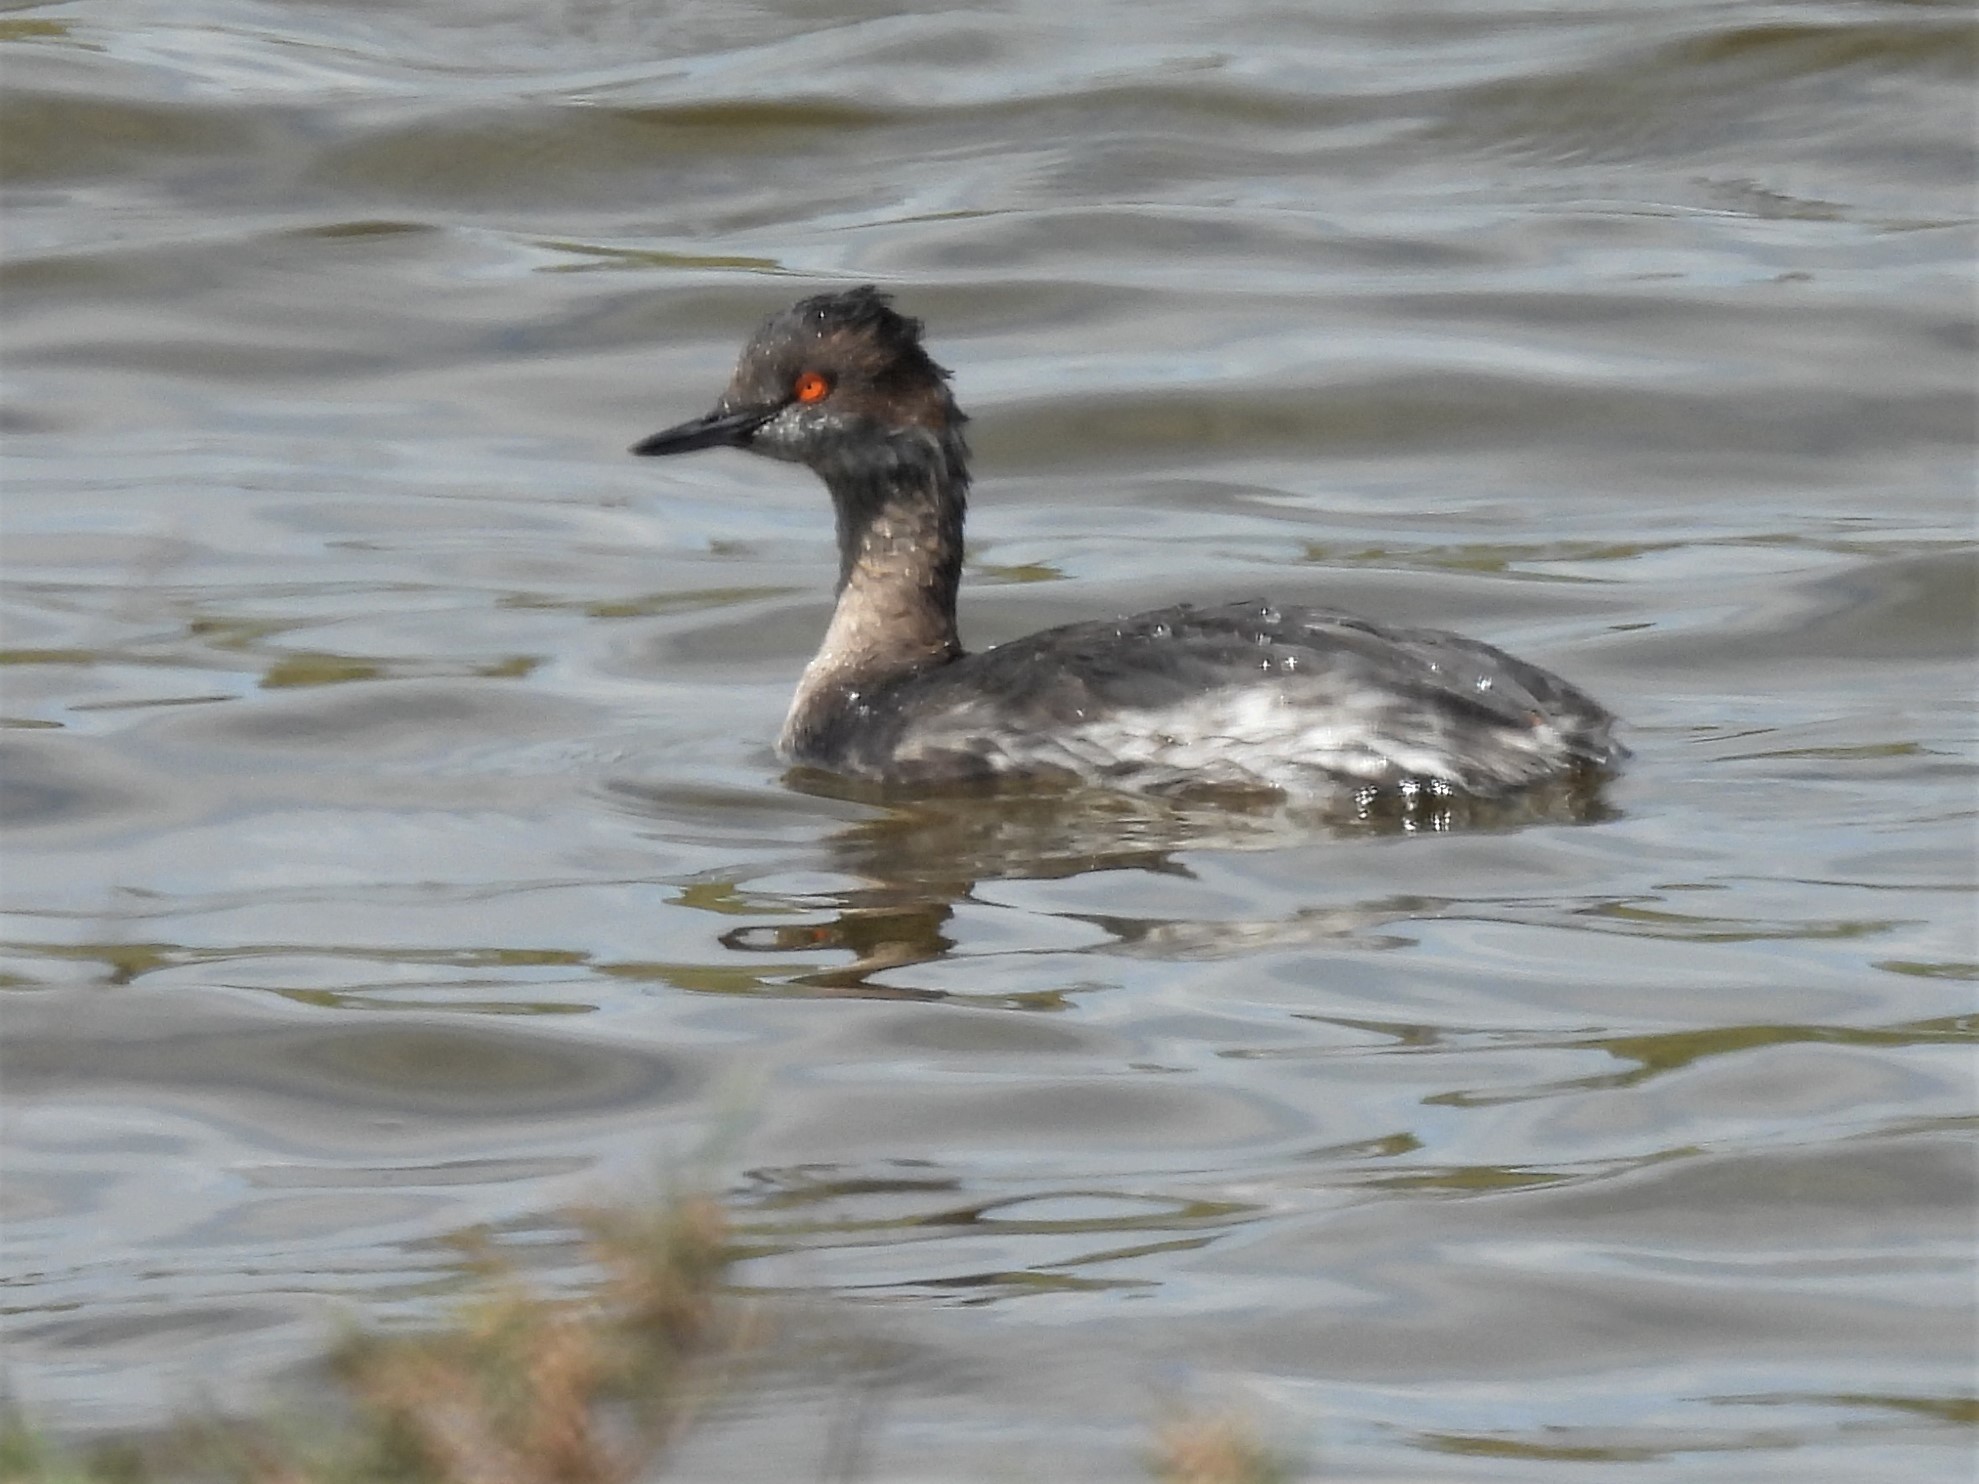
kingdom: Animalia
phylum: Chordata
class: Aves
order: Podicipediformes
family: Podicipedidae
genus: Podiceps
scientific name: Podiceps nigricollis
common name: Black-necked grebe
